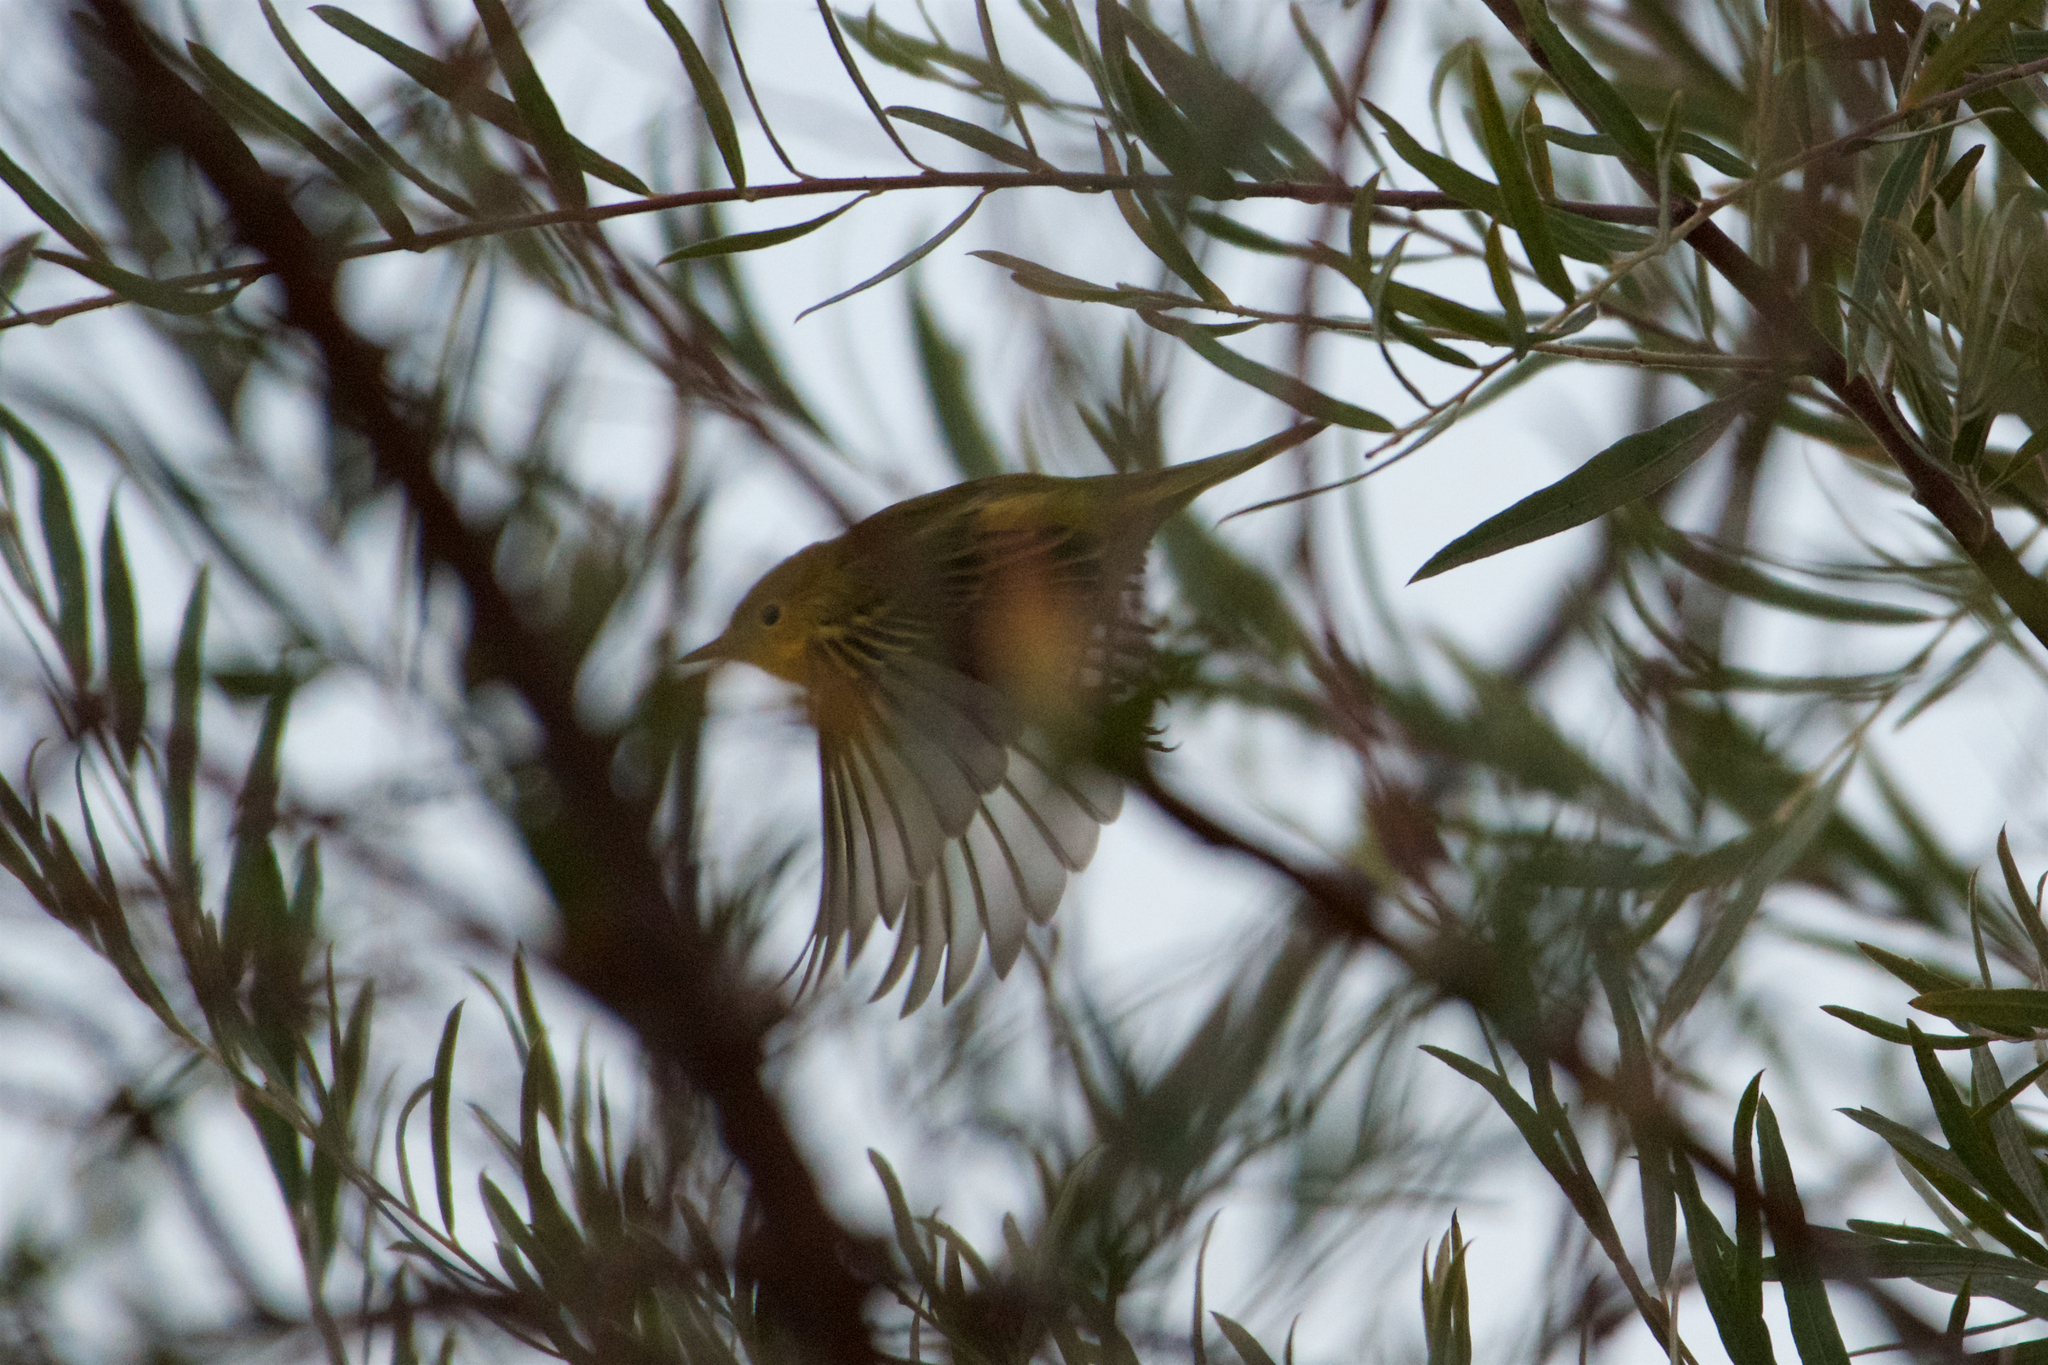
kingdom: Animalia
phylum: Chordata
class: Aves
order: Passeriformes
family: Parulidae
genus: Setophaga
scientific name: Setophaga petechia
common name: Yellow warbler
